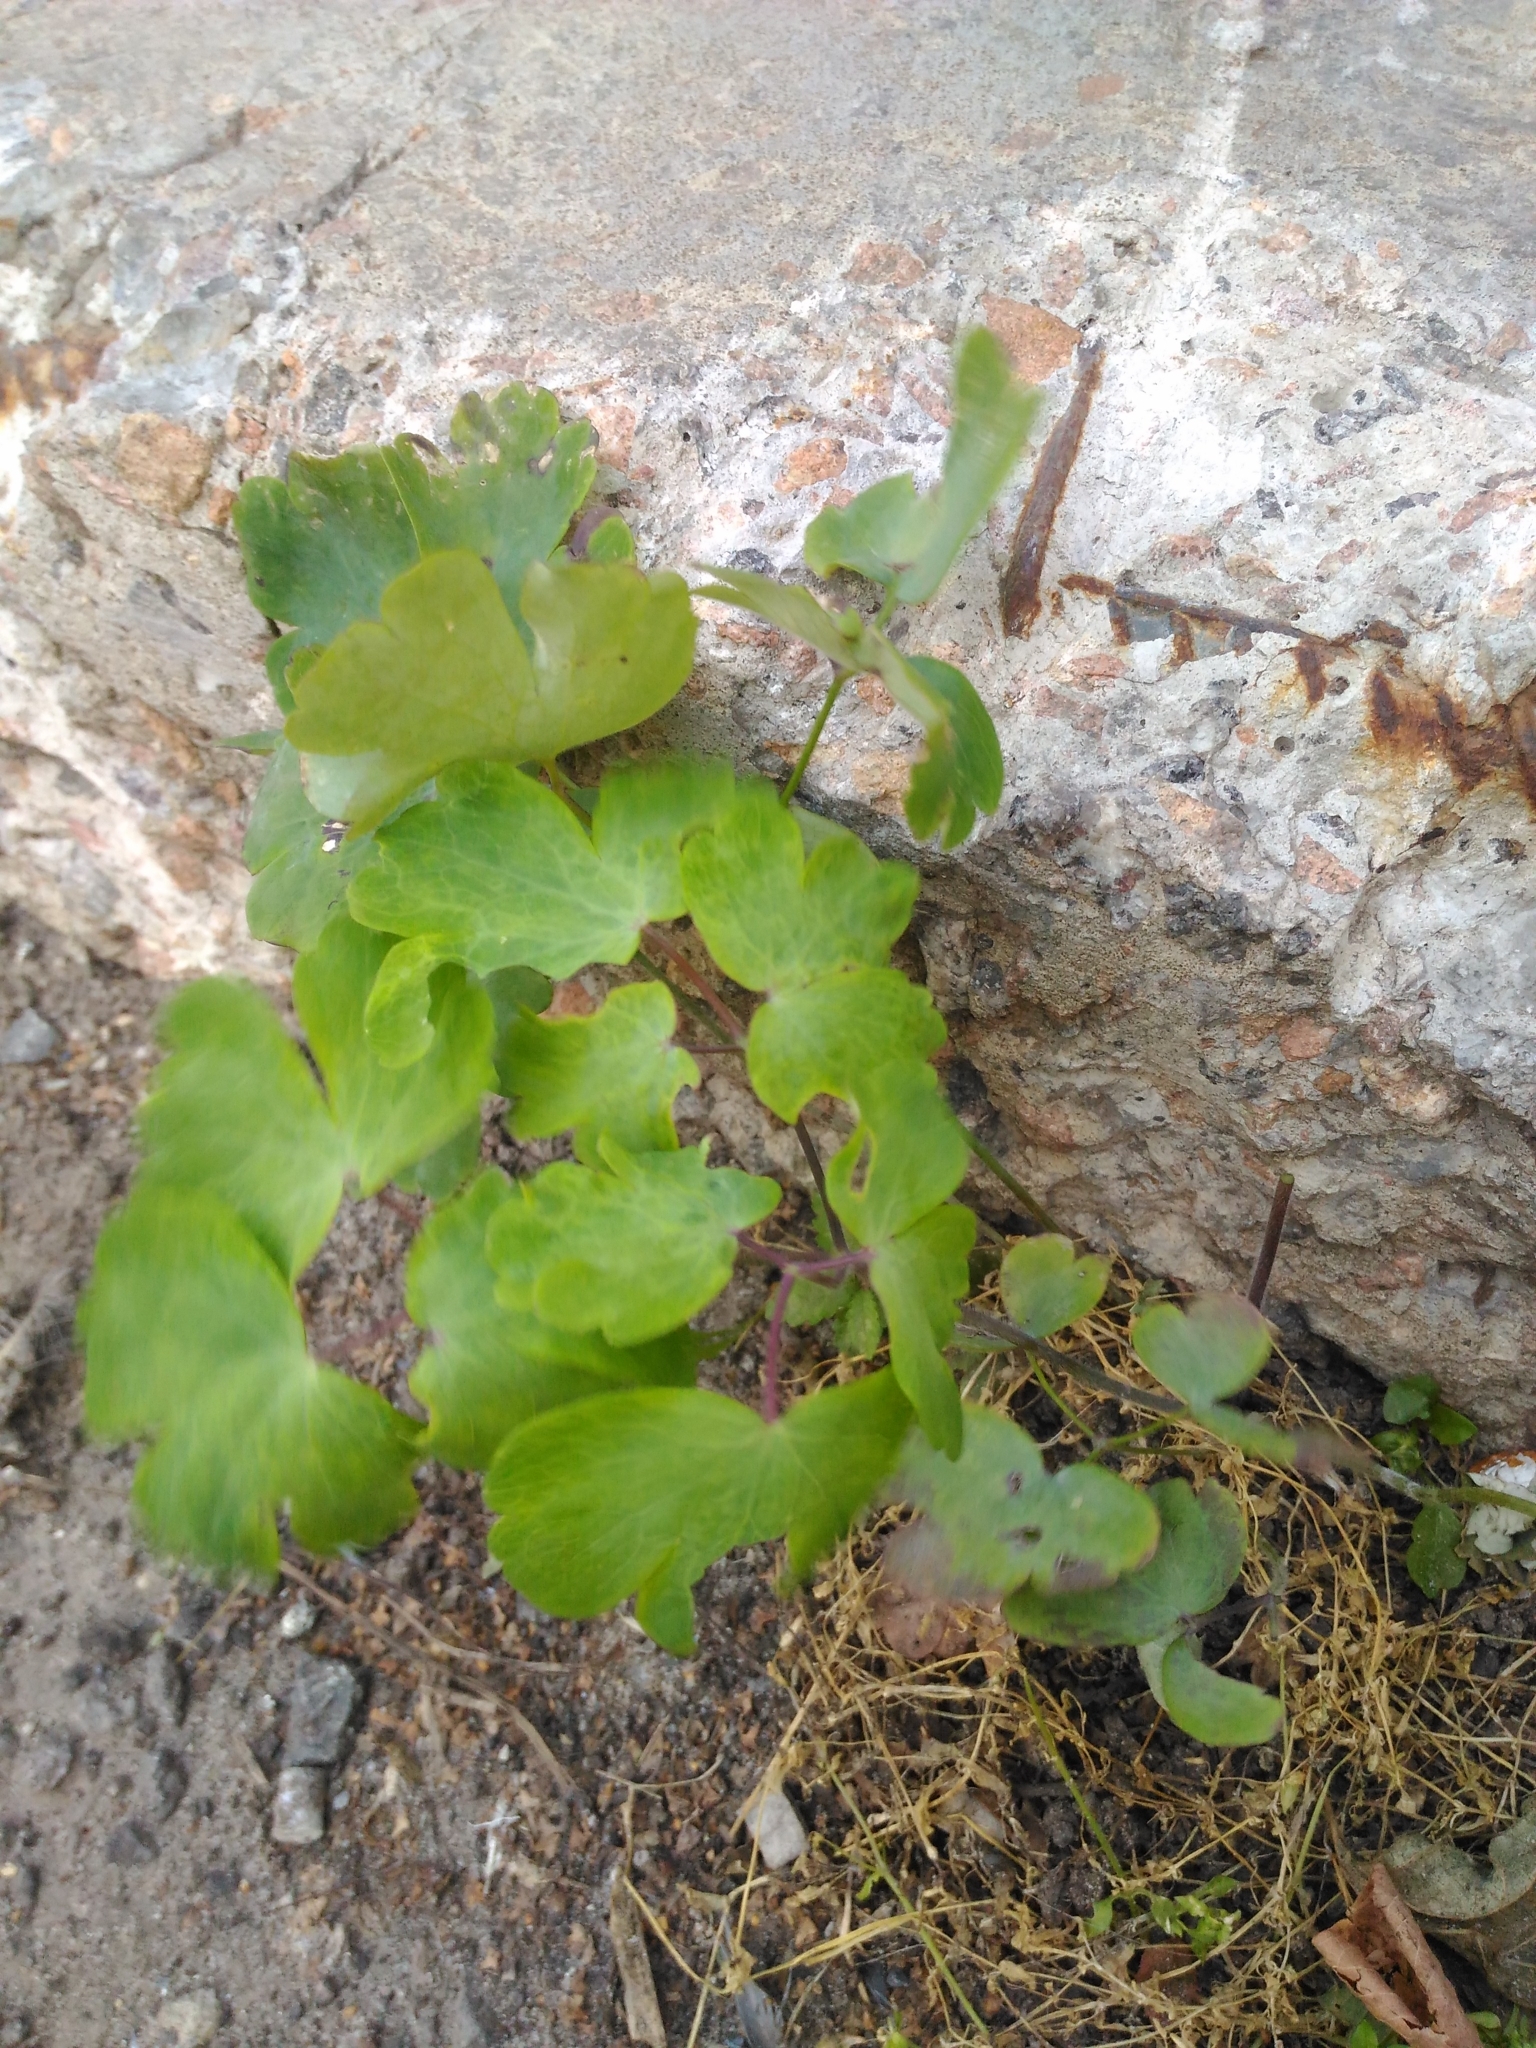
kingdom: Plantae
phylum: Tracheophyta
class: Magnoliopsida
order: Ranunculales
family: Ranunculaceae
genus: Aquilegia
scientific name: Aquilegia vulgaris
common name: Columbine
